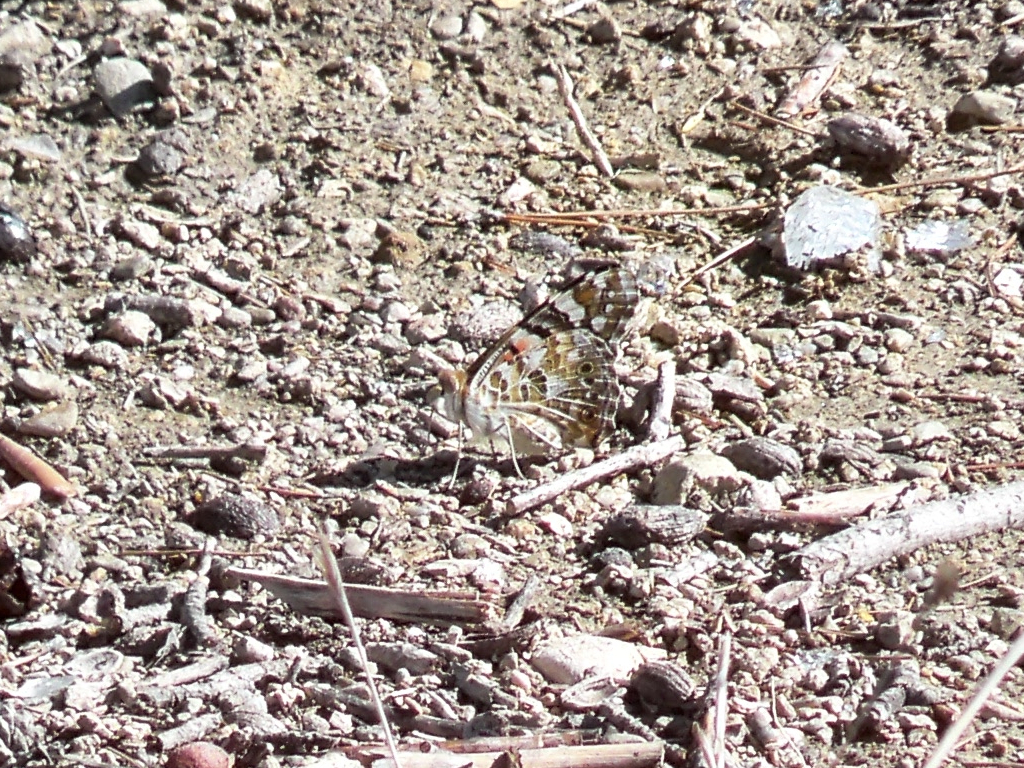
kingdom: Animalia
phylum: Arthropoda
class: Insecta
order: Lepidoptera
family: Nymphalidae
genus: Vanessa
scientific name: Vanessa cardui
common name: Painted lady
